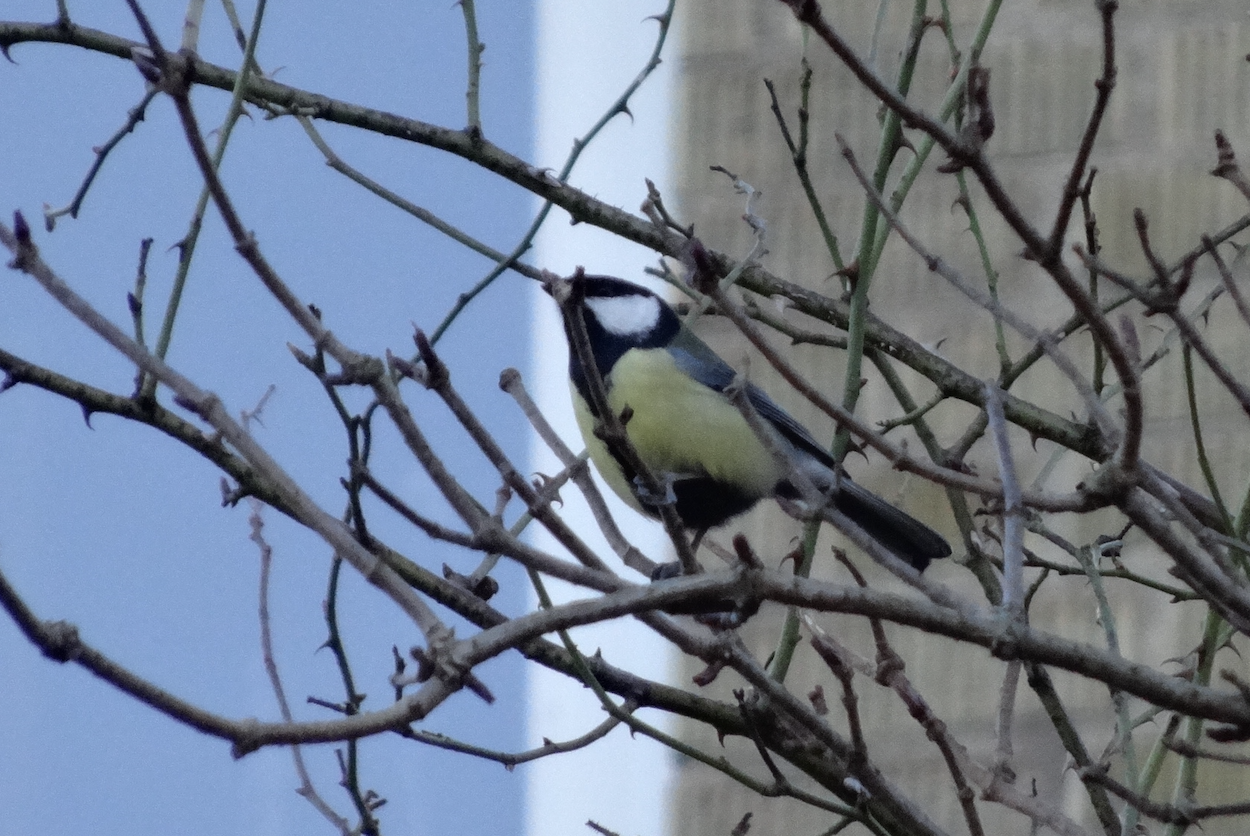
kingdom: Animalia
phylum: Chordata
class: Aves
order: Passeriformes
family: Paridae
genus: Parus
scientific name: Parus major
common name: Great tit
